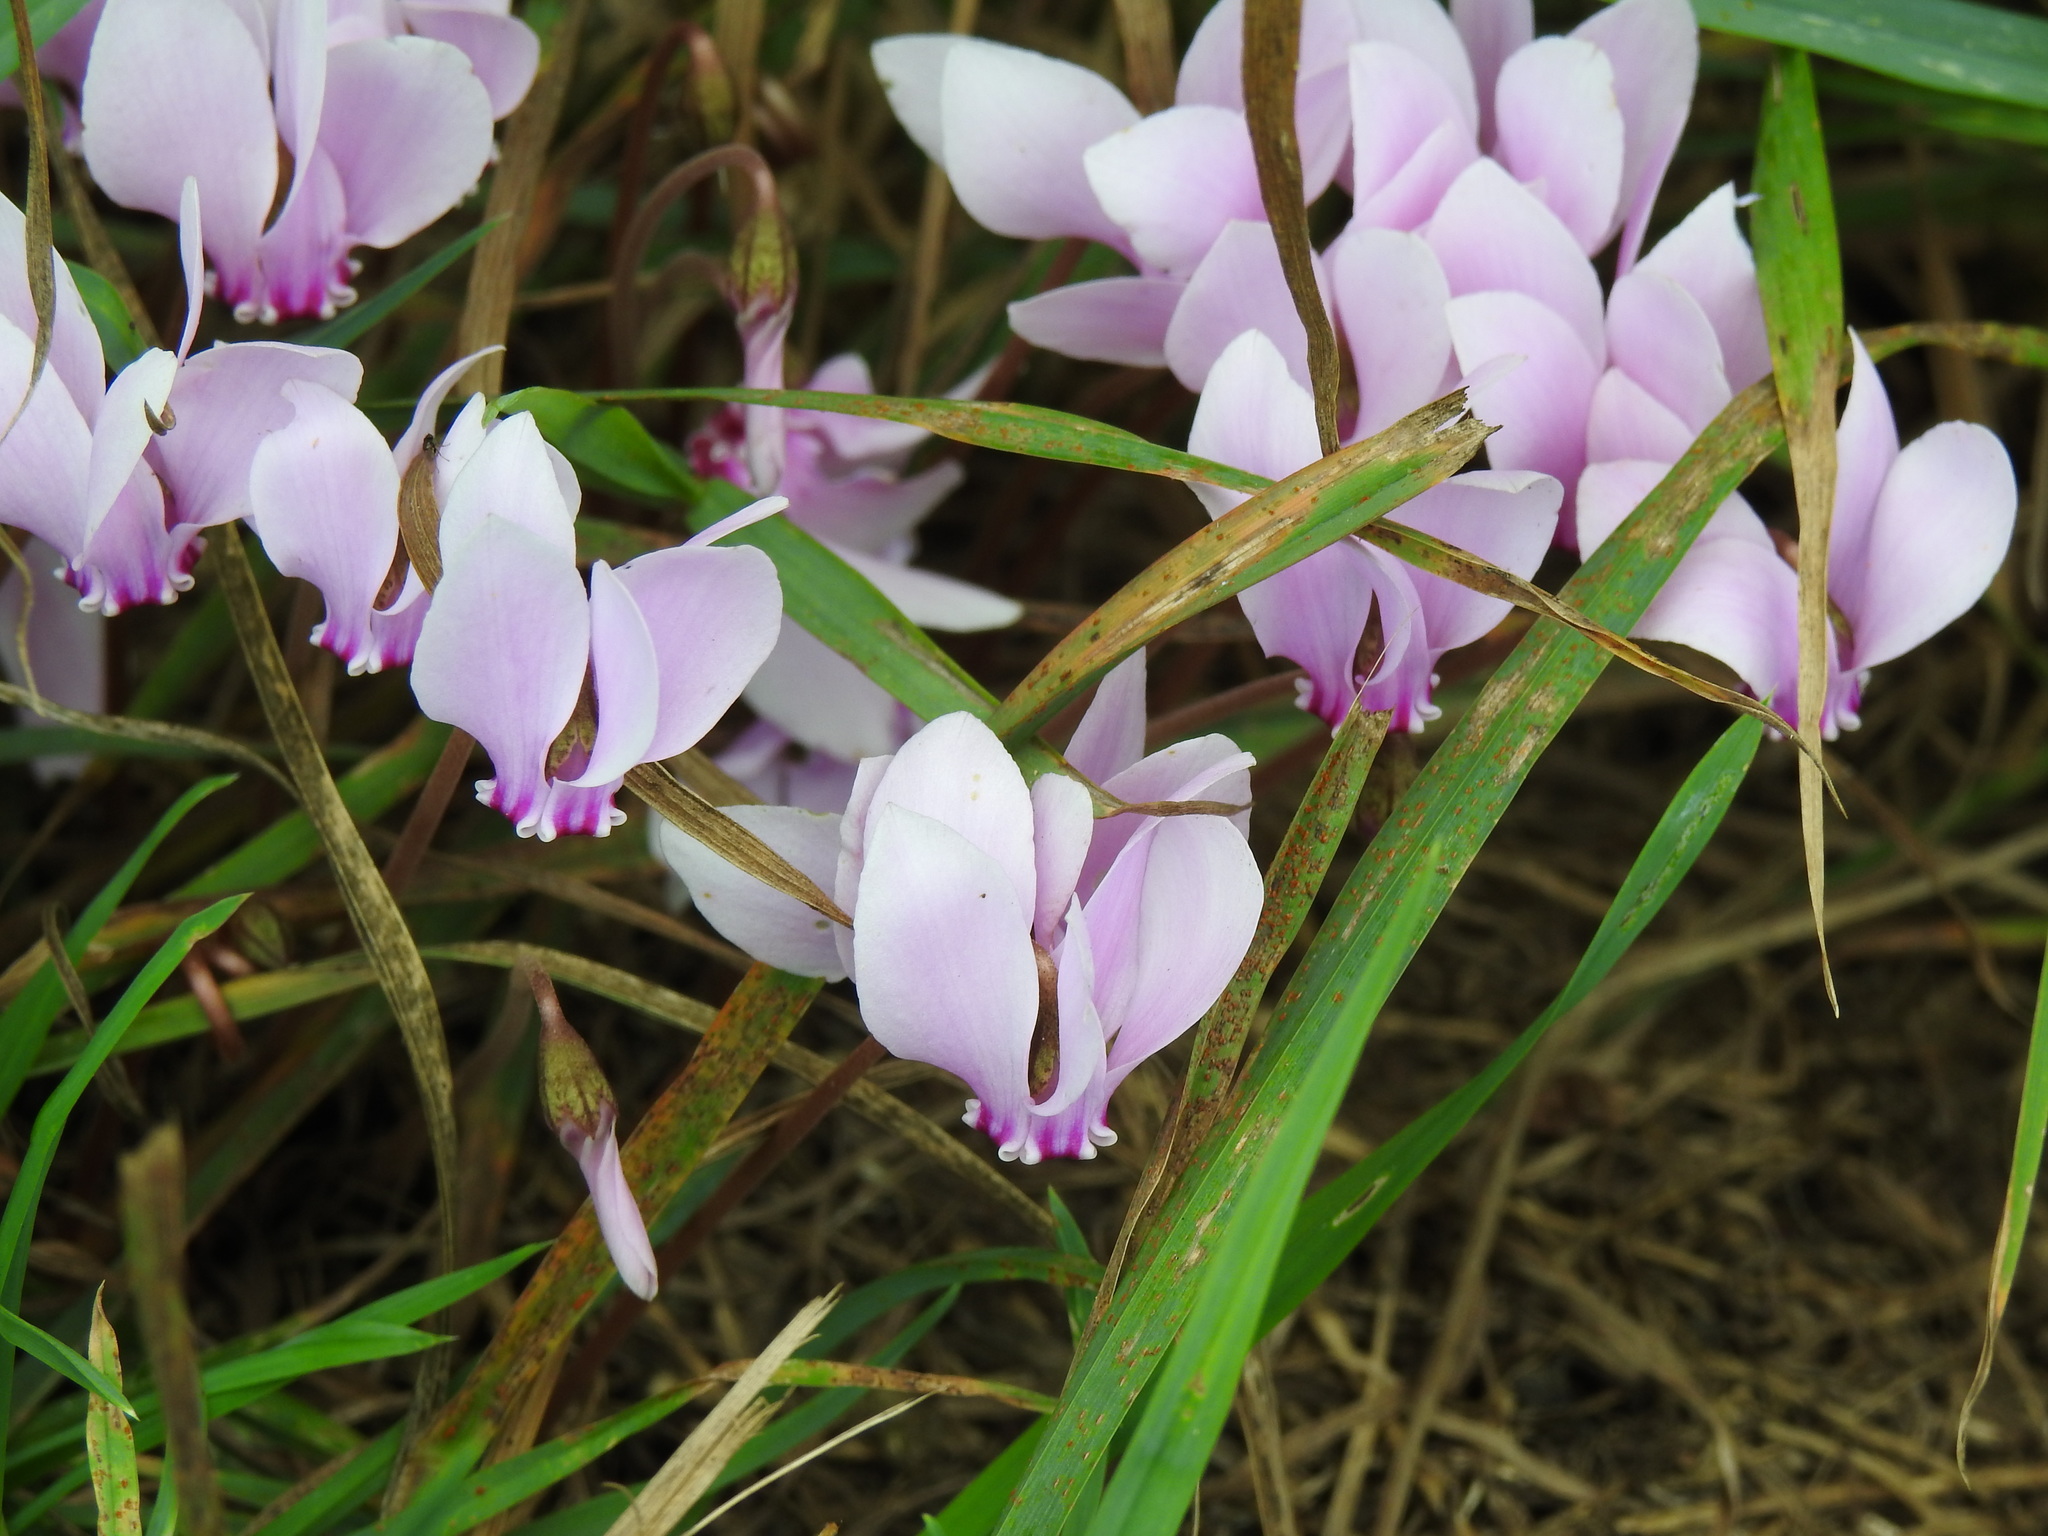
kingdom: Plantae
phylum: Tracheophyta
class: Magnoliopsida
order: Ericales
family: Primulaceae
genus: Cyclamen
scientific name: Cyclamen hederifolium
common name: Sowbread
